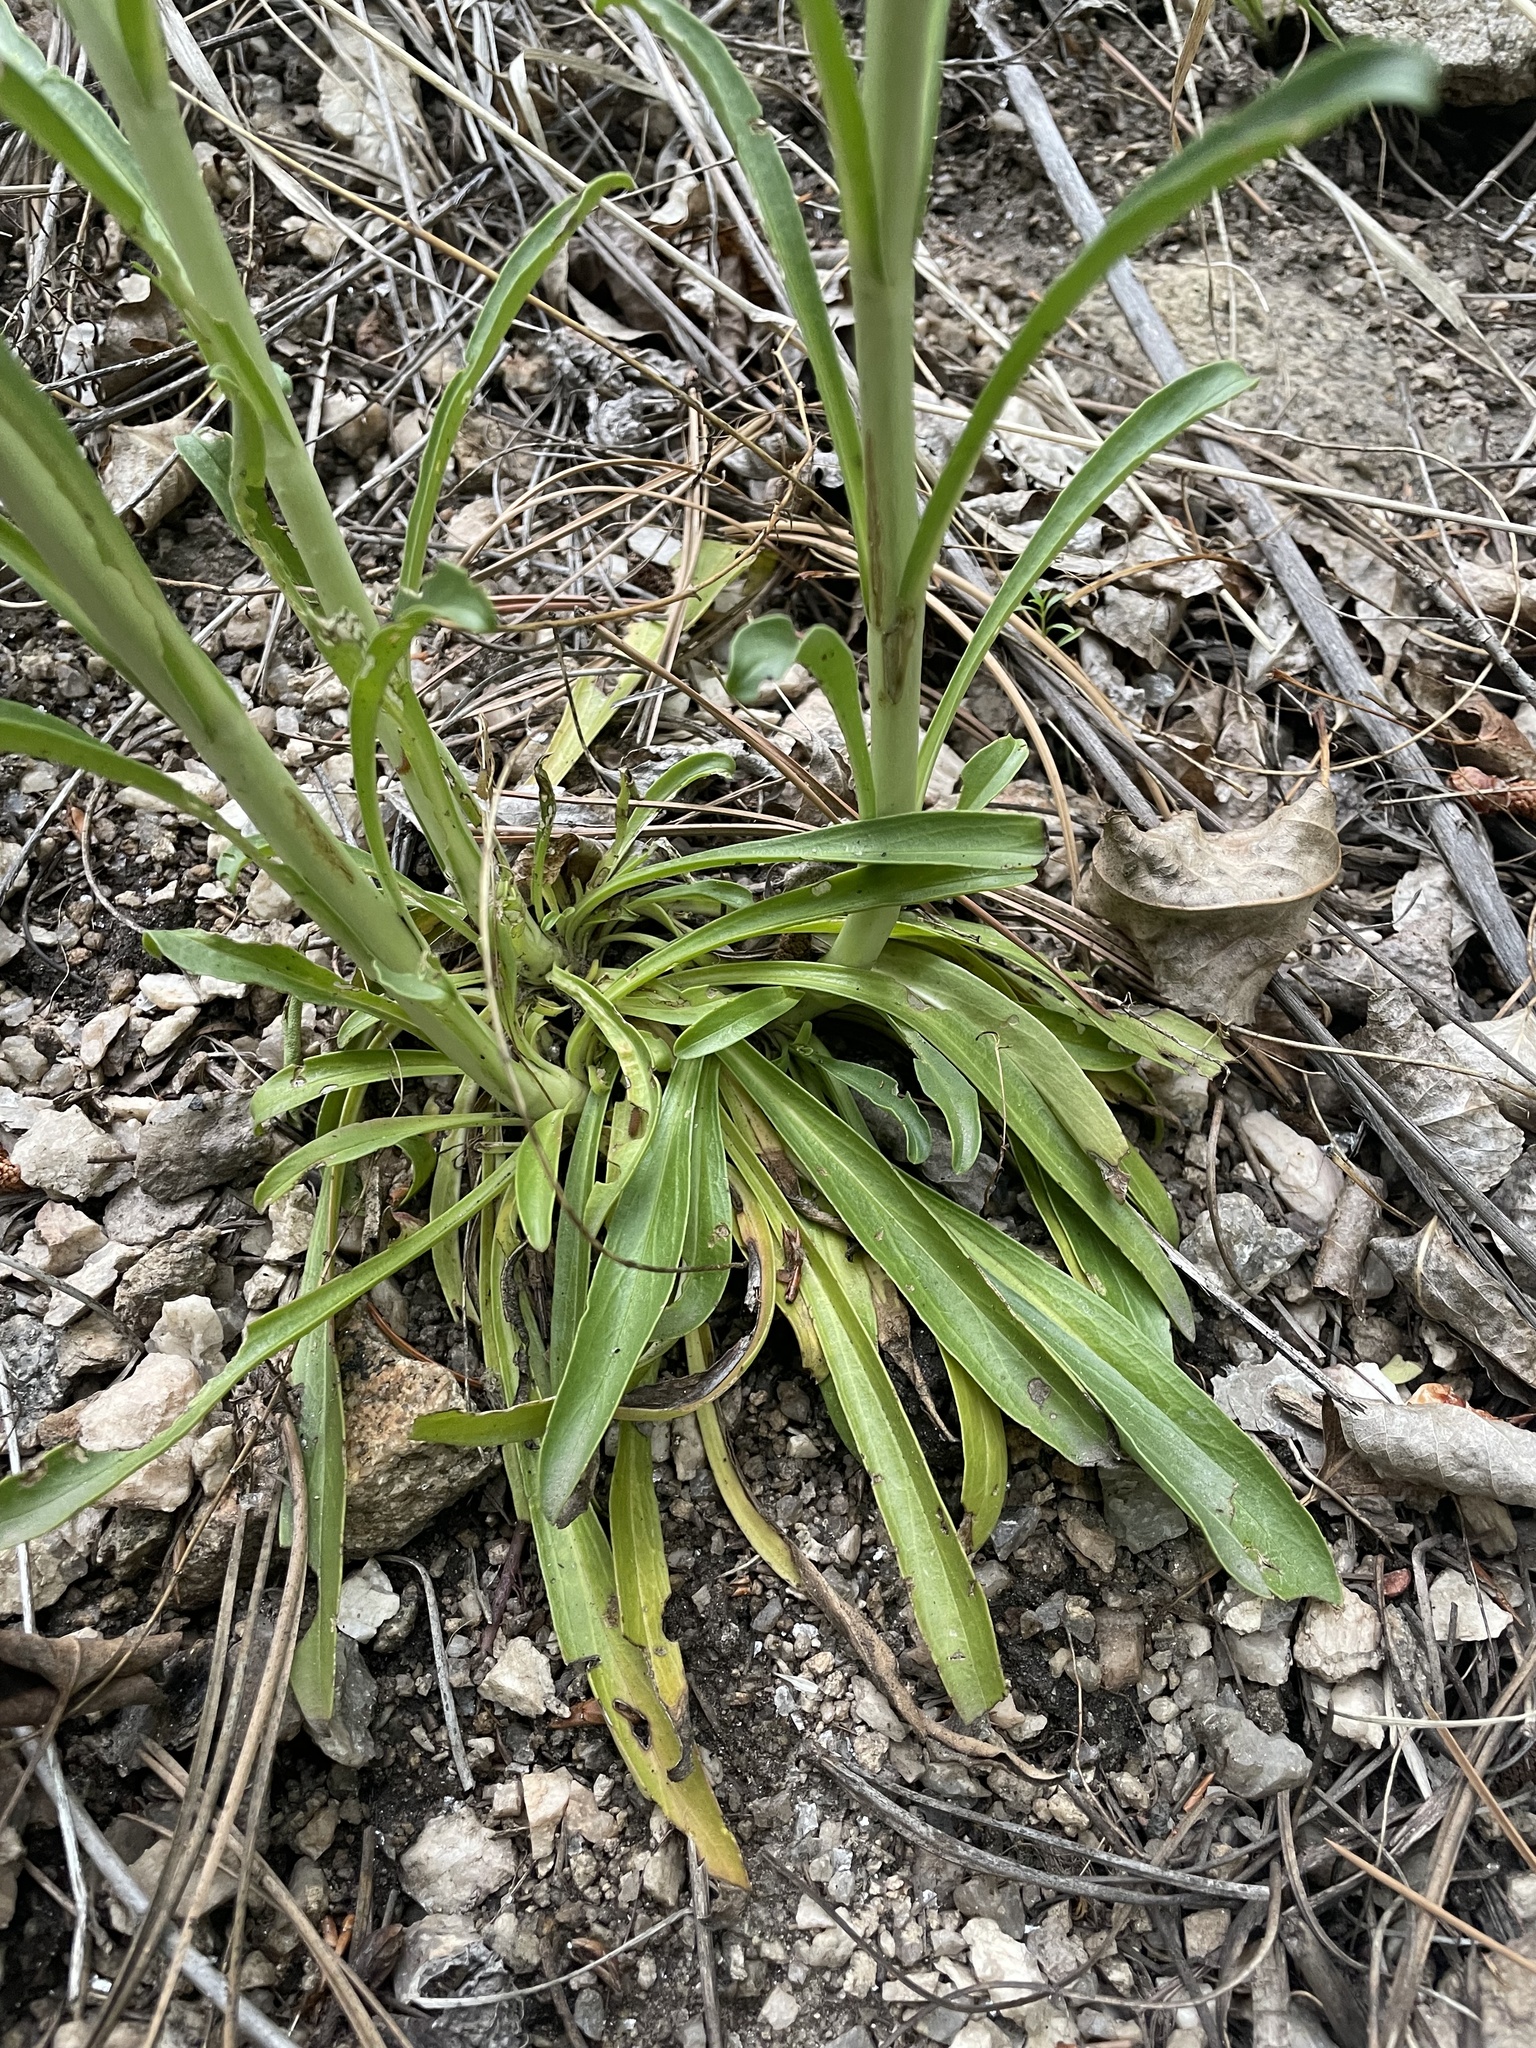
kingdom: Plantae
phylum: Tracheophyta
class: Magnoliopsida
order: Lamiales
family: Plantaginaceae
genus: Penstemon
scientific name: Penstemon virgatus
